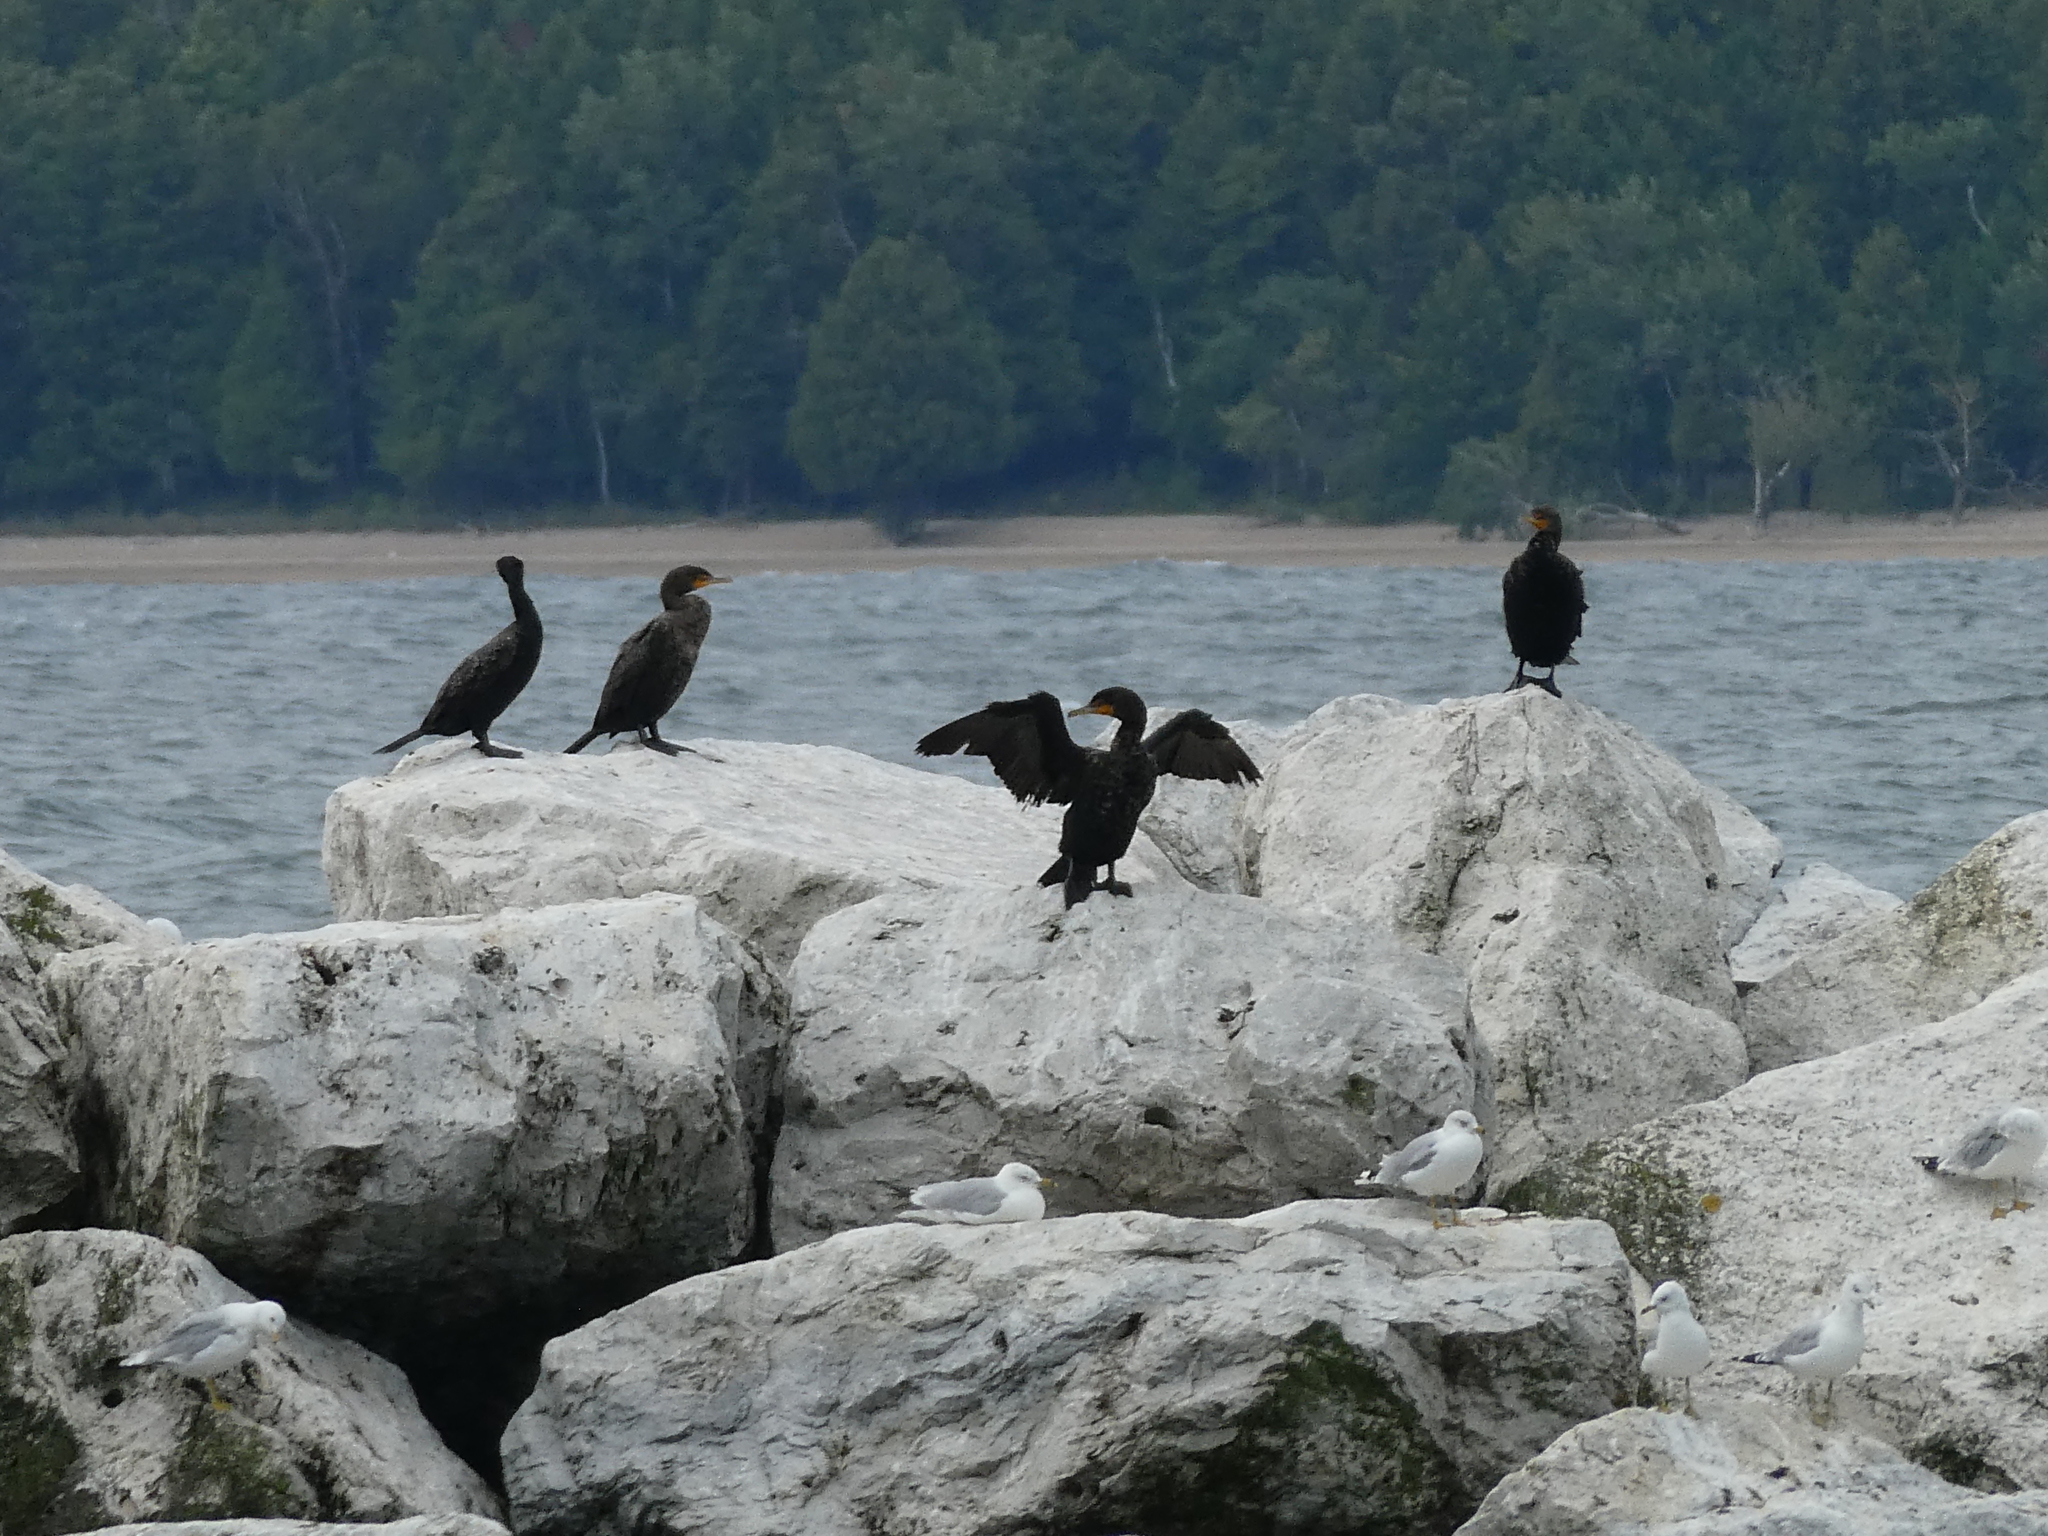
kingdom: Animalia
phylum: Chordata
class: Aves
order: Suliformes
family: Phalacrocoracidae
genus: Phalacrocorax
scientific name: Phalacrocorax auritus
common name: Double-crested cormorant
